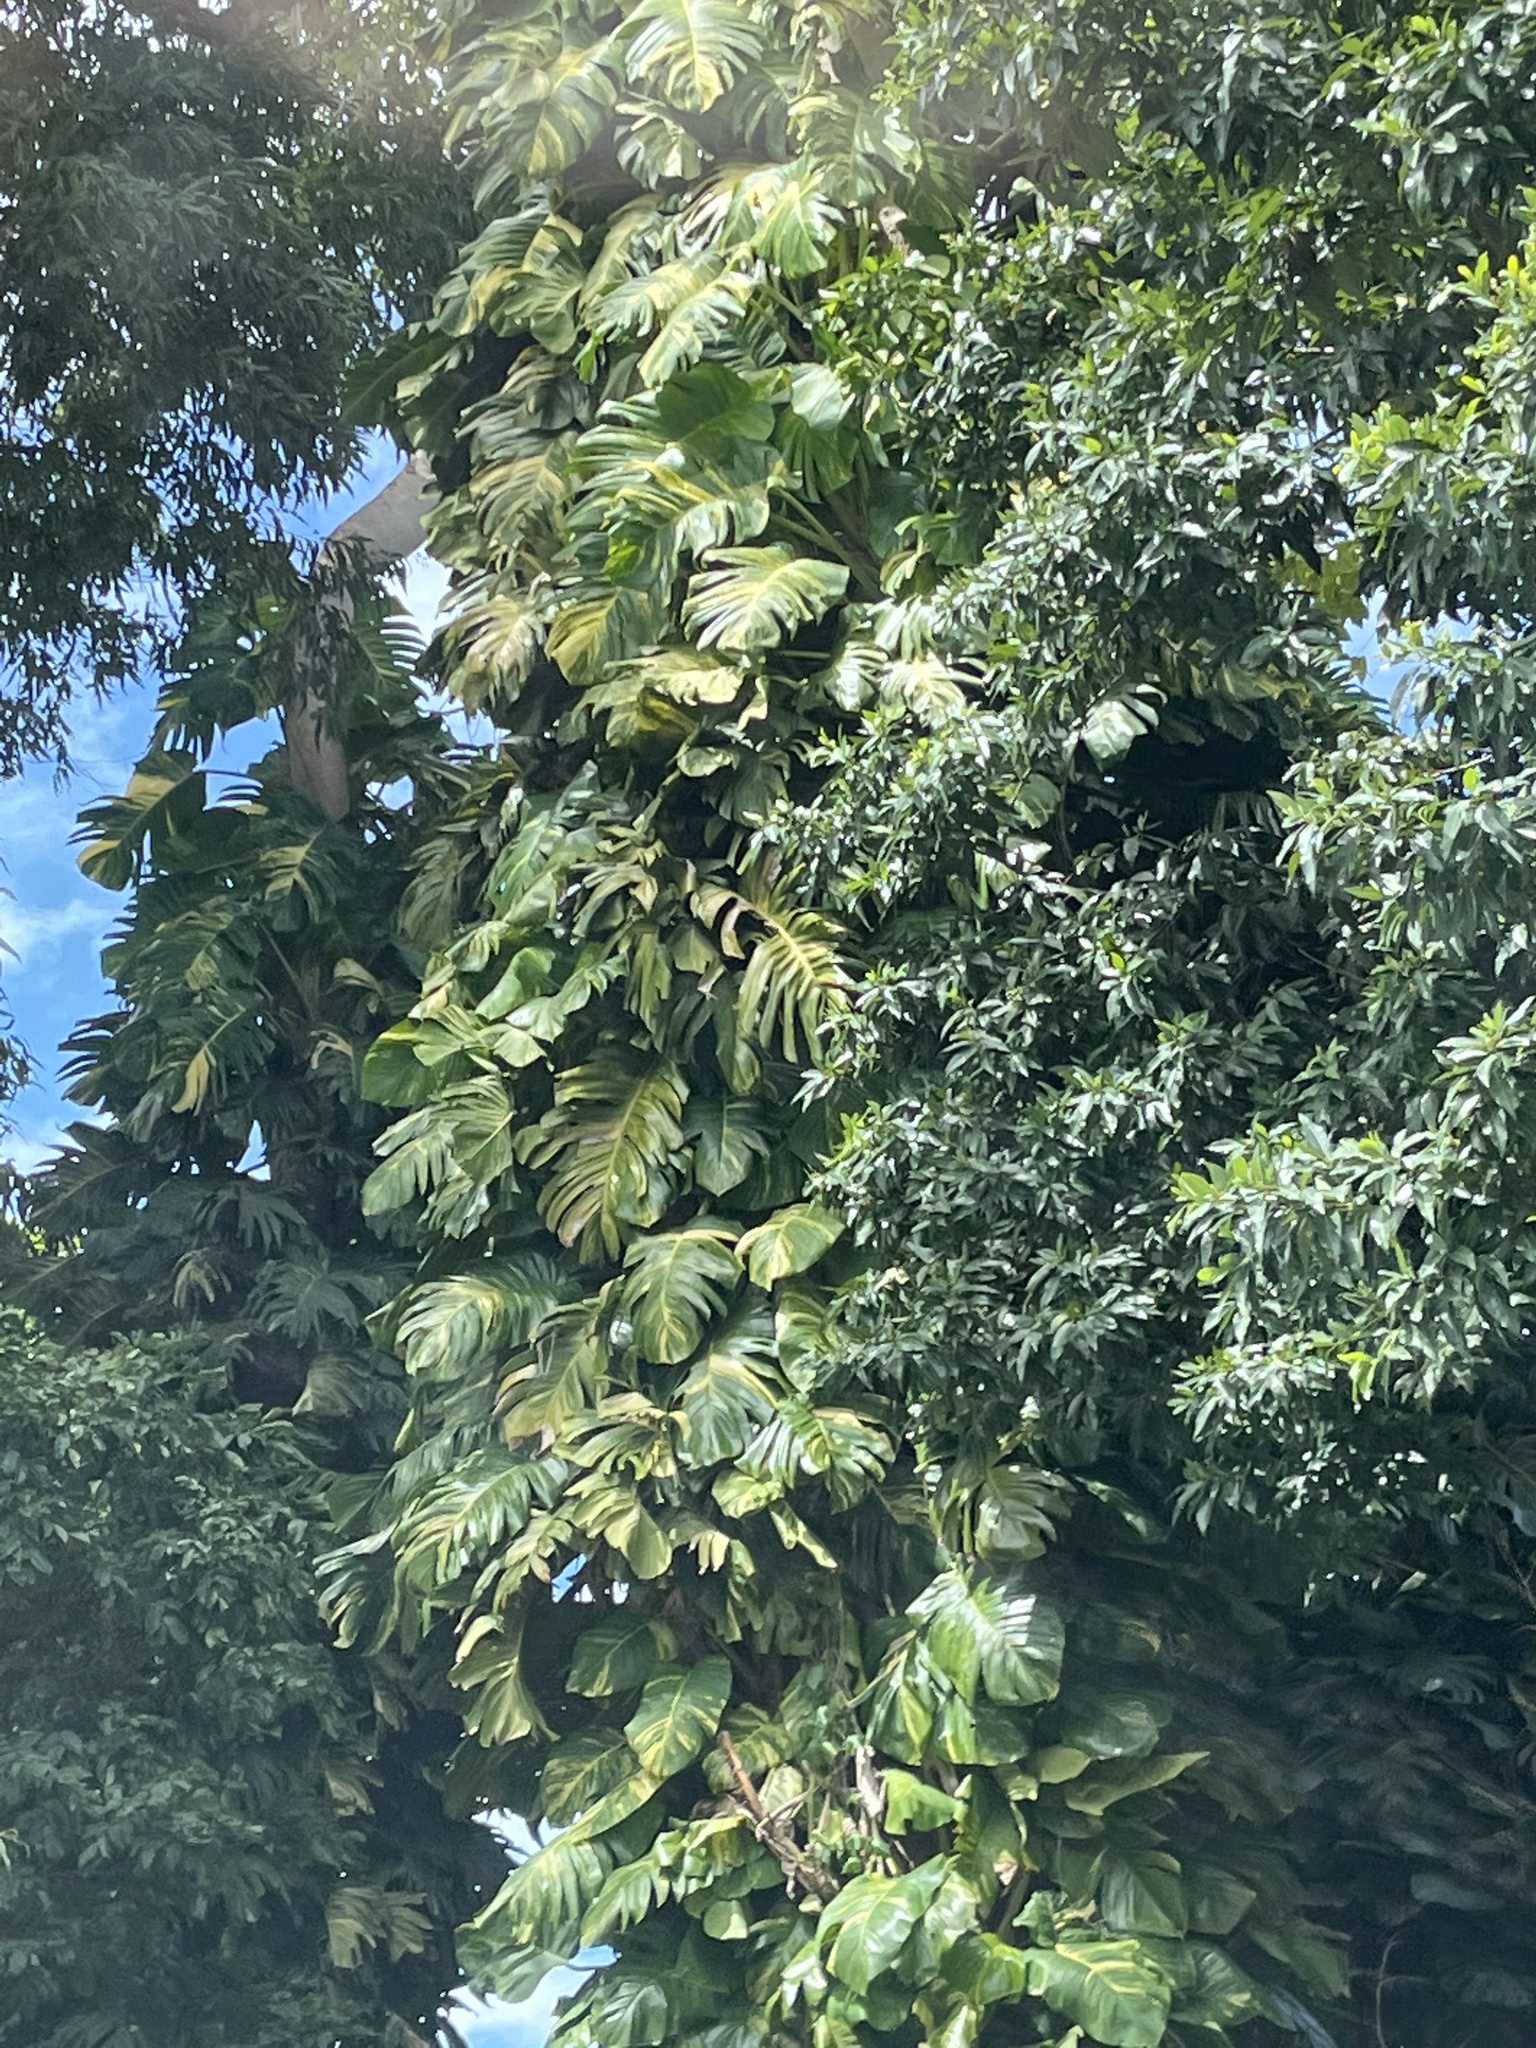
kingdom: Plantae
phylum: Tracheophyta
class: Liliopsida
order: Alismatales
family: Araceae
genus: Epipremnum
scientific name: Epipremnum aureum
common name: Golden hunter's-robe
